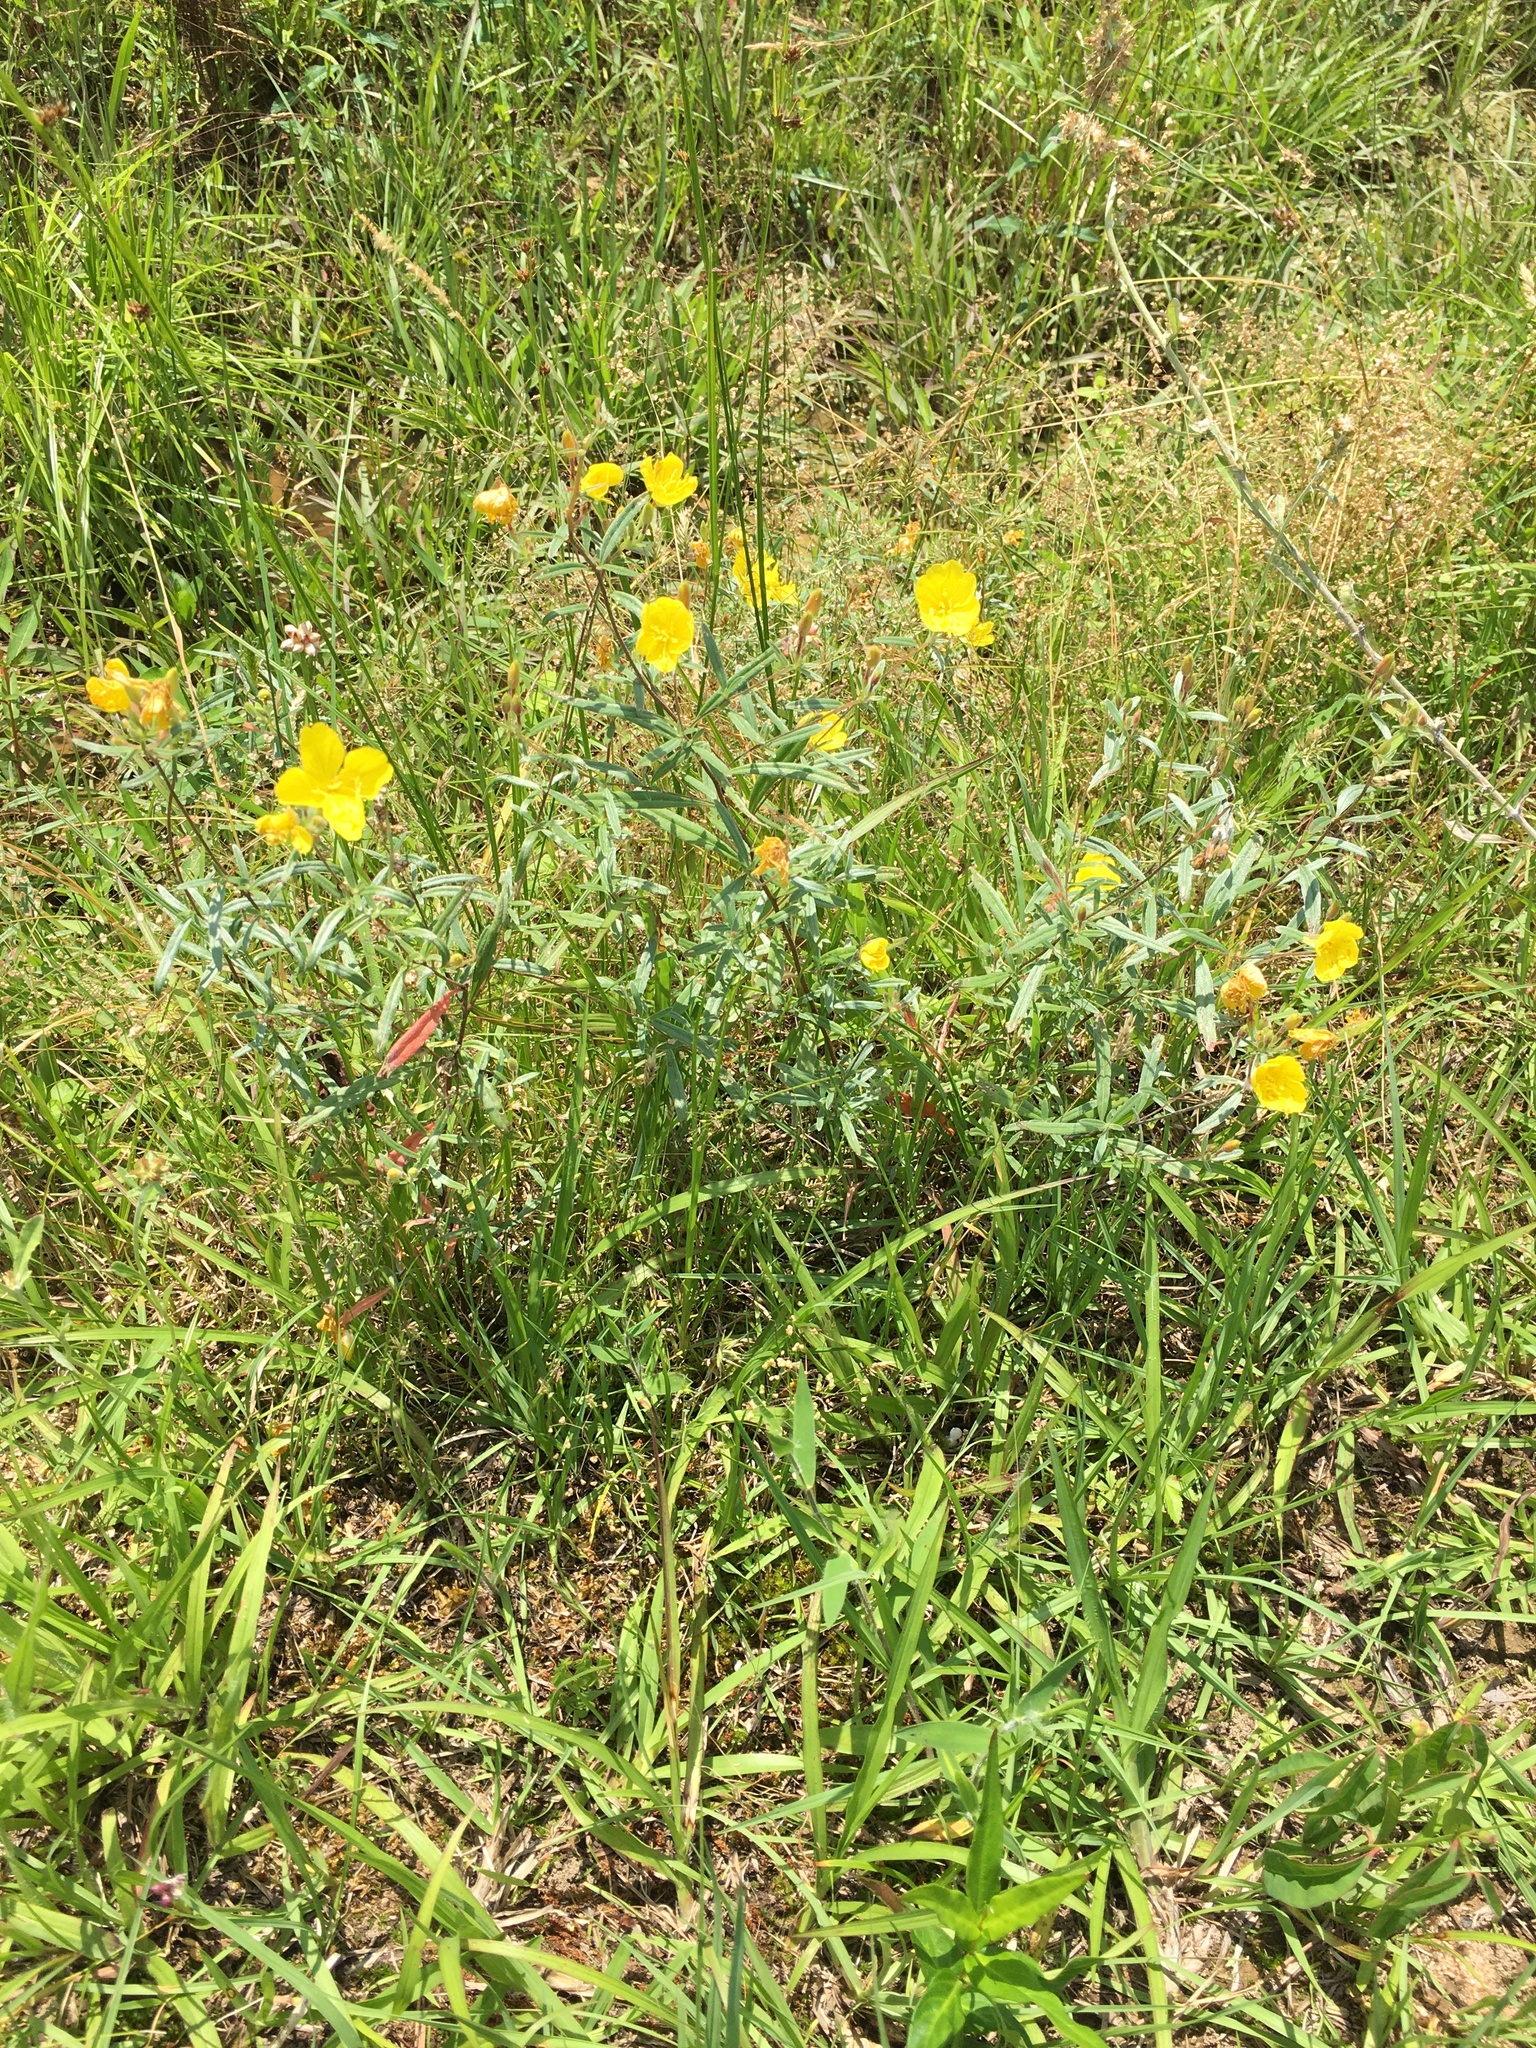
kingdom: Plantae
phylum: Tracheophyta
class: Magnoliopsida
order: Myrtales
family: Onagraceae
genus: Oenothera
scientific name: Oenothera fruticosa
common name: Southern sundrops
